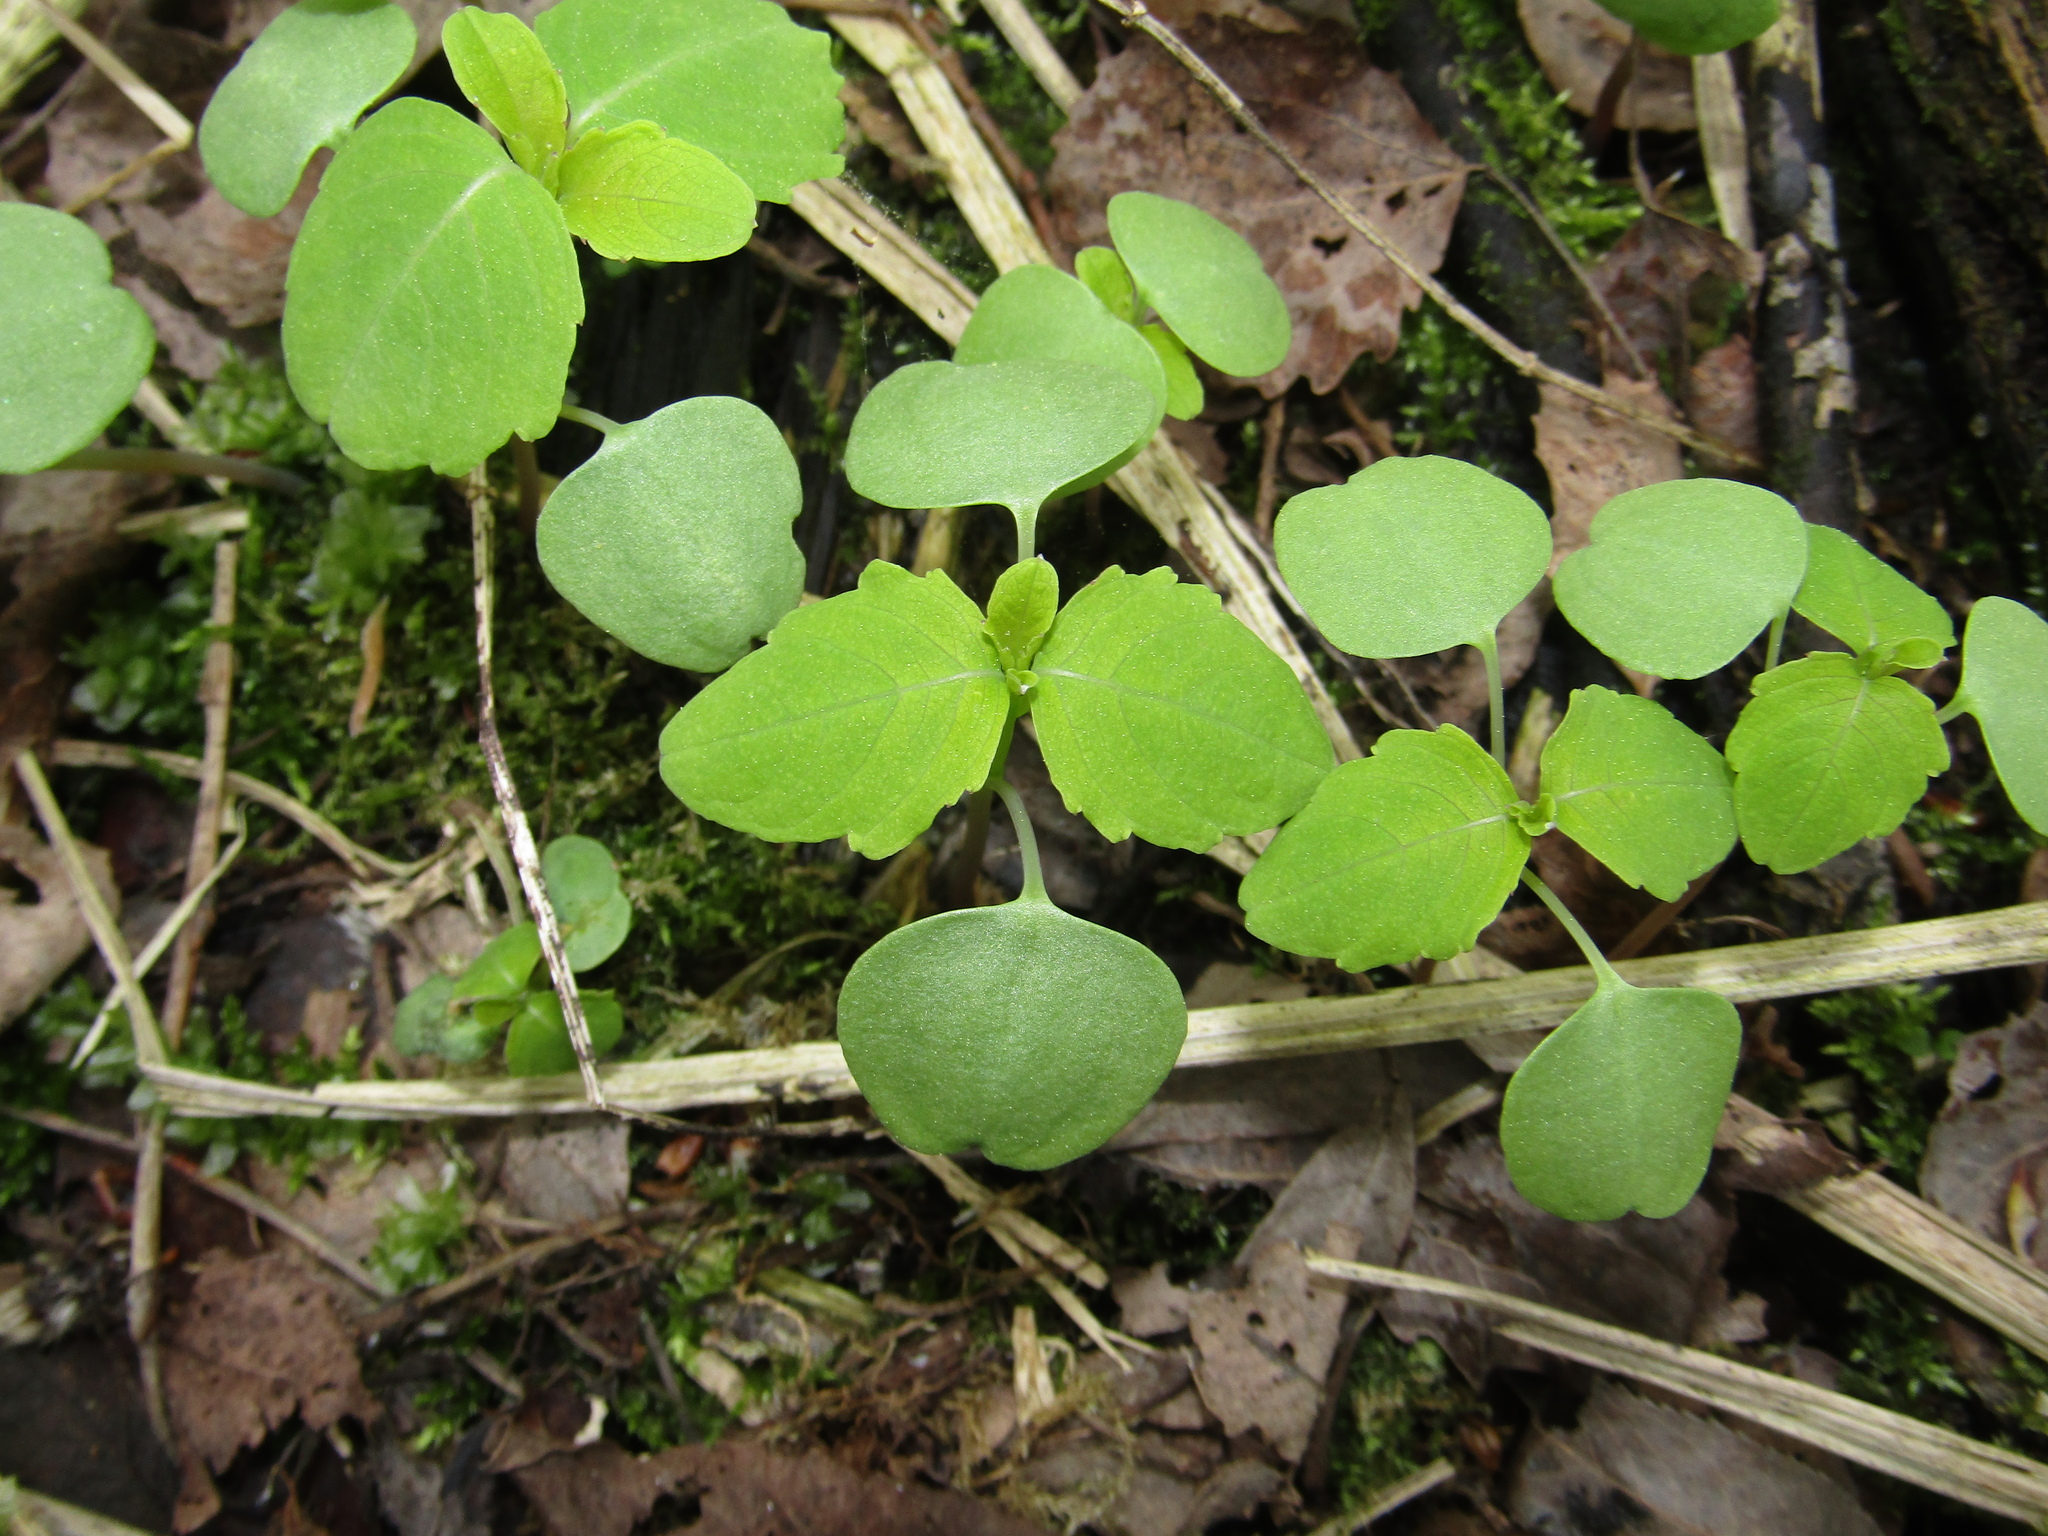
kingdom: Plantae
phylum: Tracheophyta
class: Magnoliopsida
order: Ericales
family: Balsaminaceae
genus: Impatiens
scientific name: Impatiens noli-tangere
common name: Touch-me-not balsam
